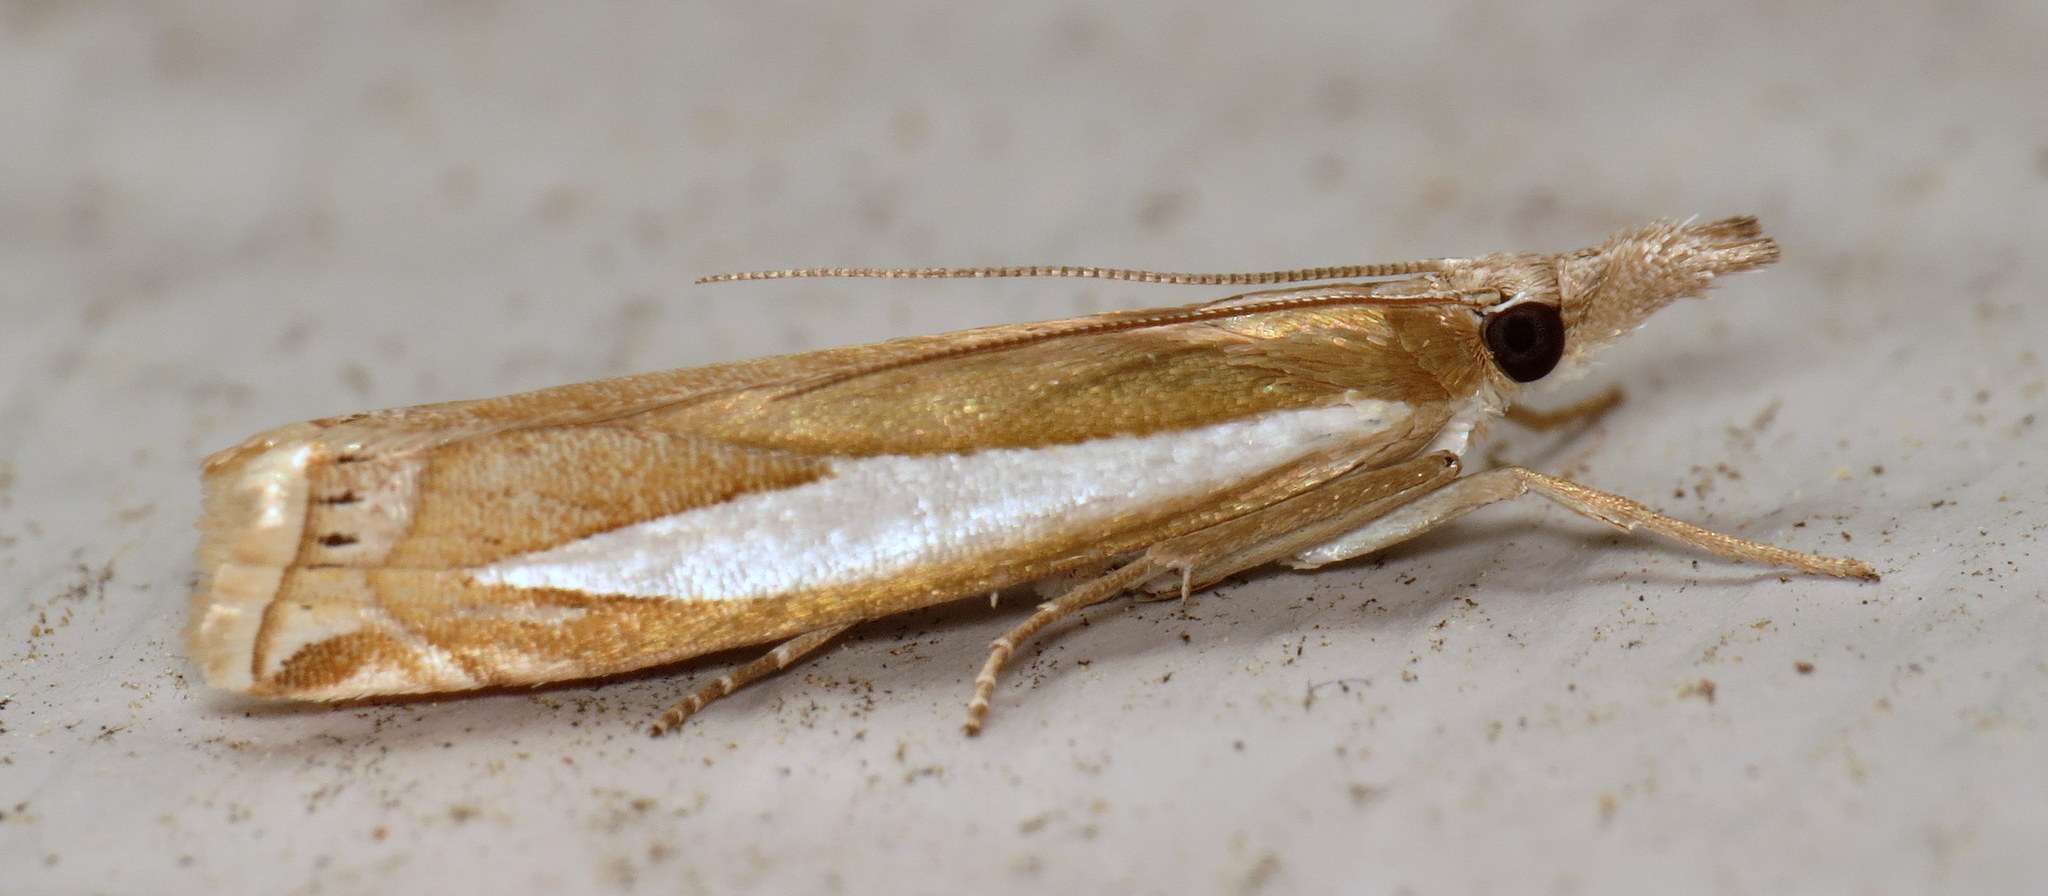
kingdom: Animalia
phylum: Arthropoda
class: Insecta
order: Lepidoptera
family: Crambidae
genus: Crambus
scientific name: Crambus praefectellus
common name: Common grass-veneer
